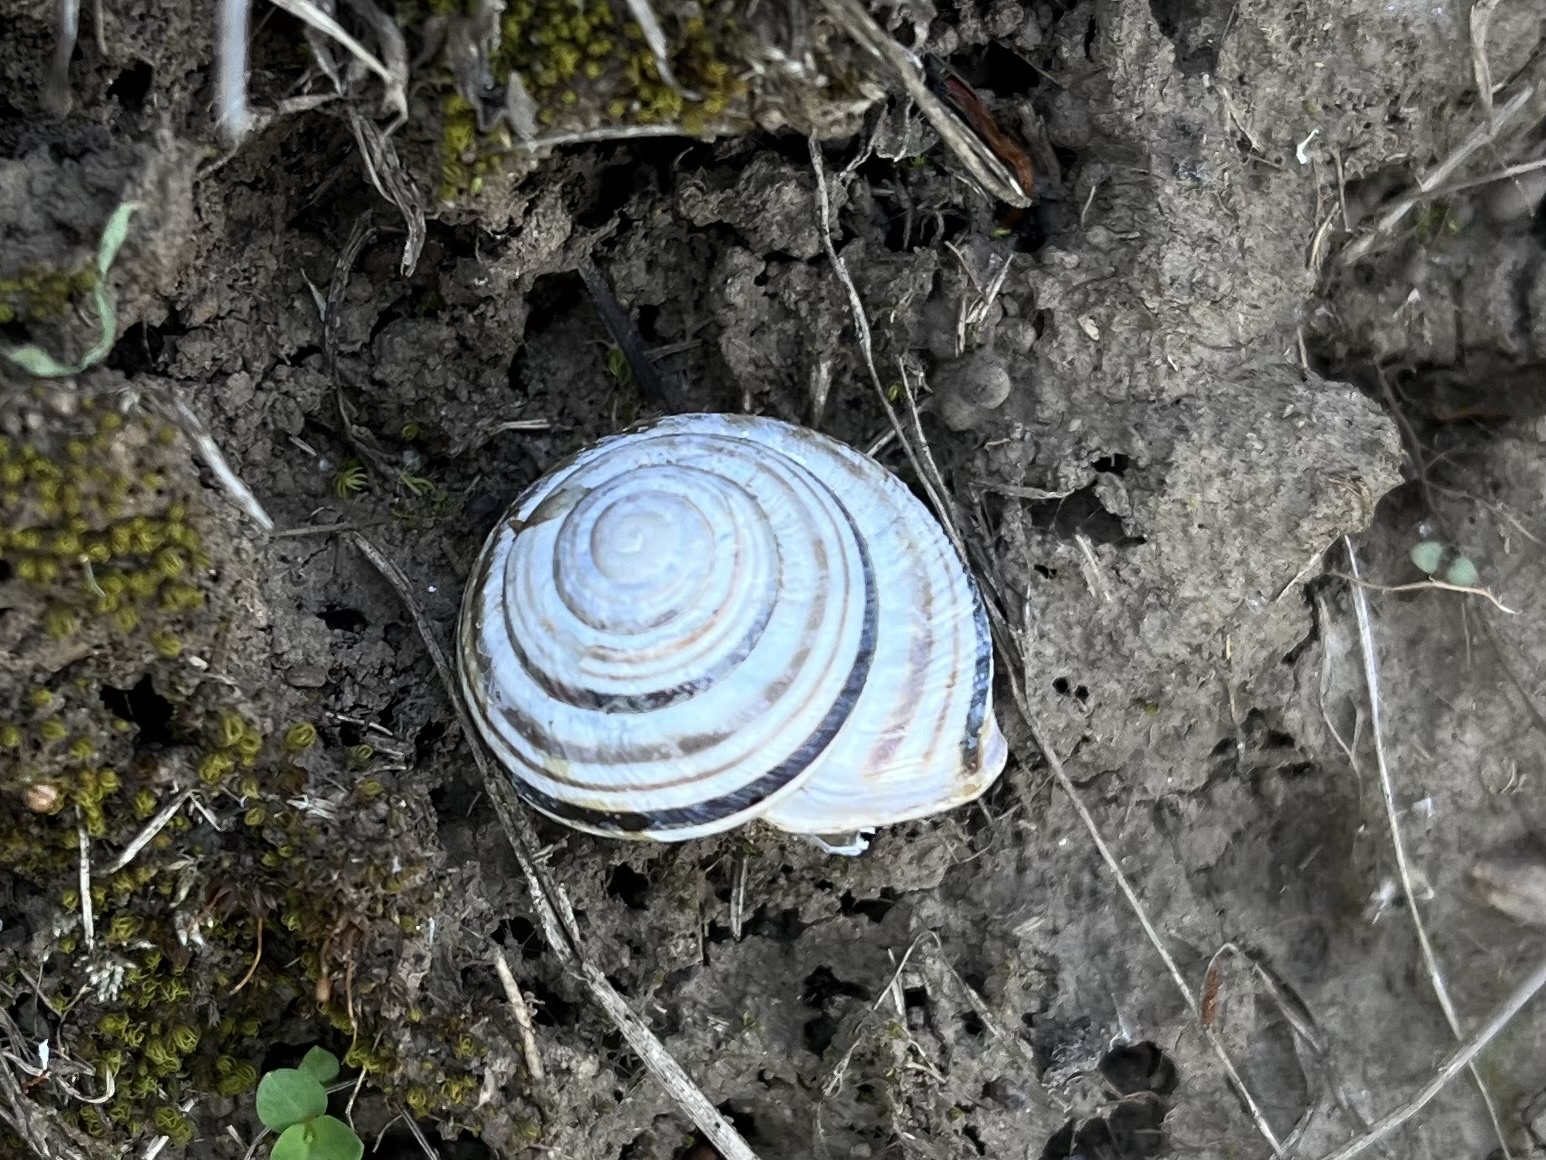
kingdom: Animalia
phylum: Mollusca
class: Gastropoda
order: Stylommatophora
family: Helicidae
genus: Caucasotachea
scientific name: Caucasotachea vindobonensis
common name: European helicid land snail
